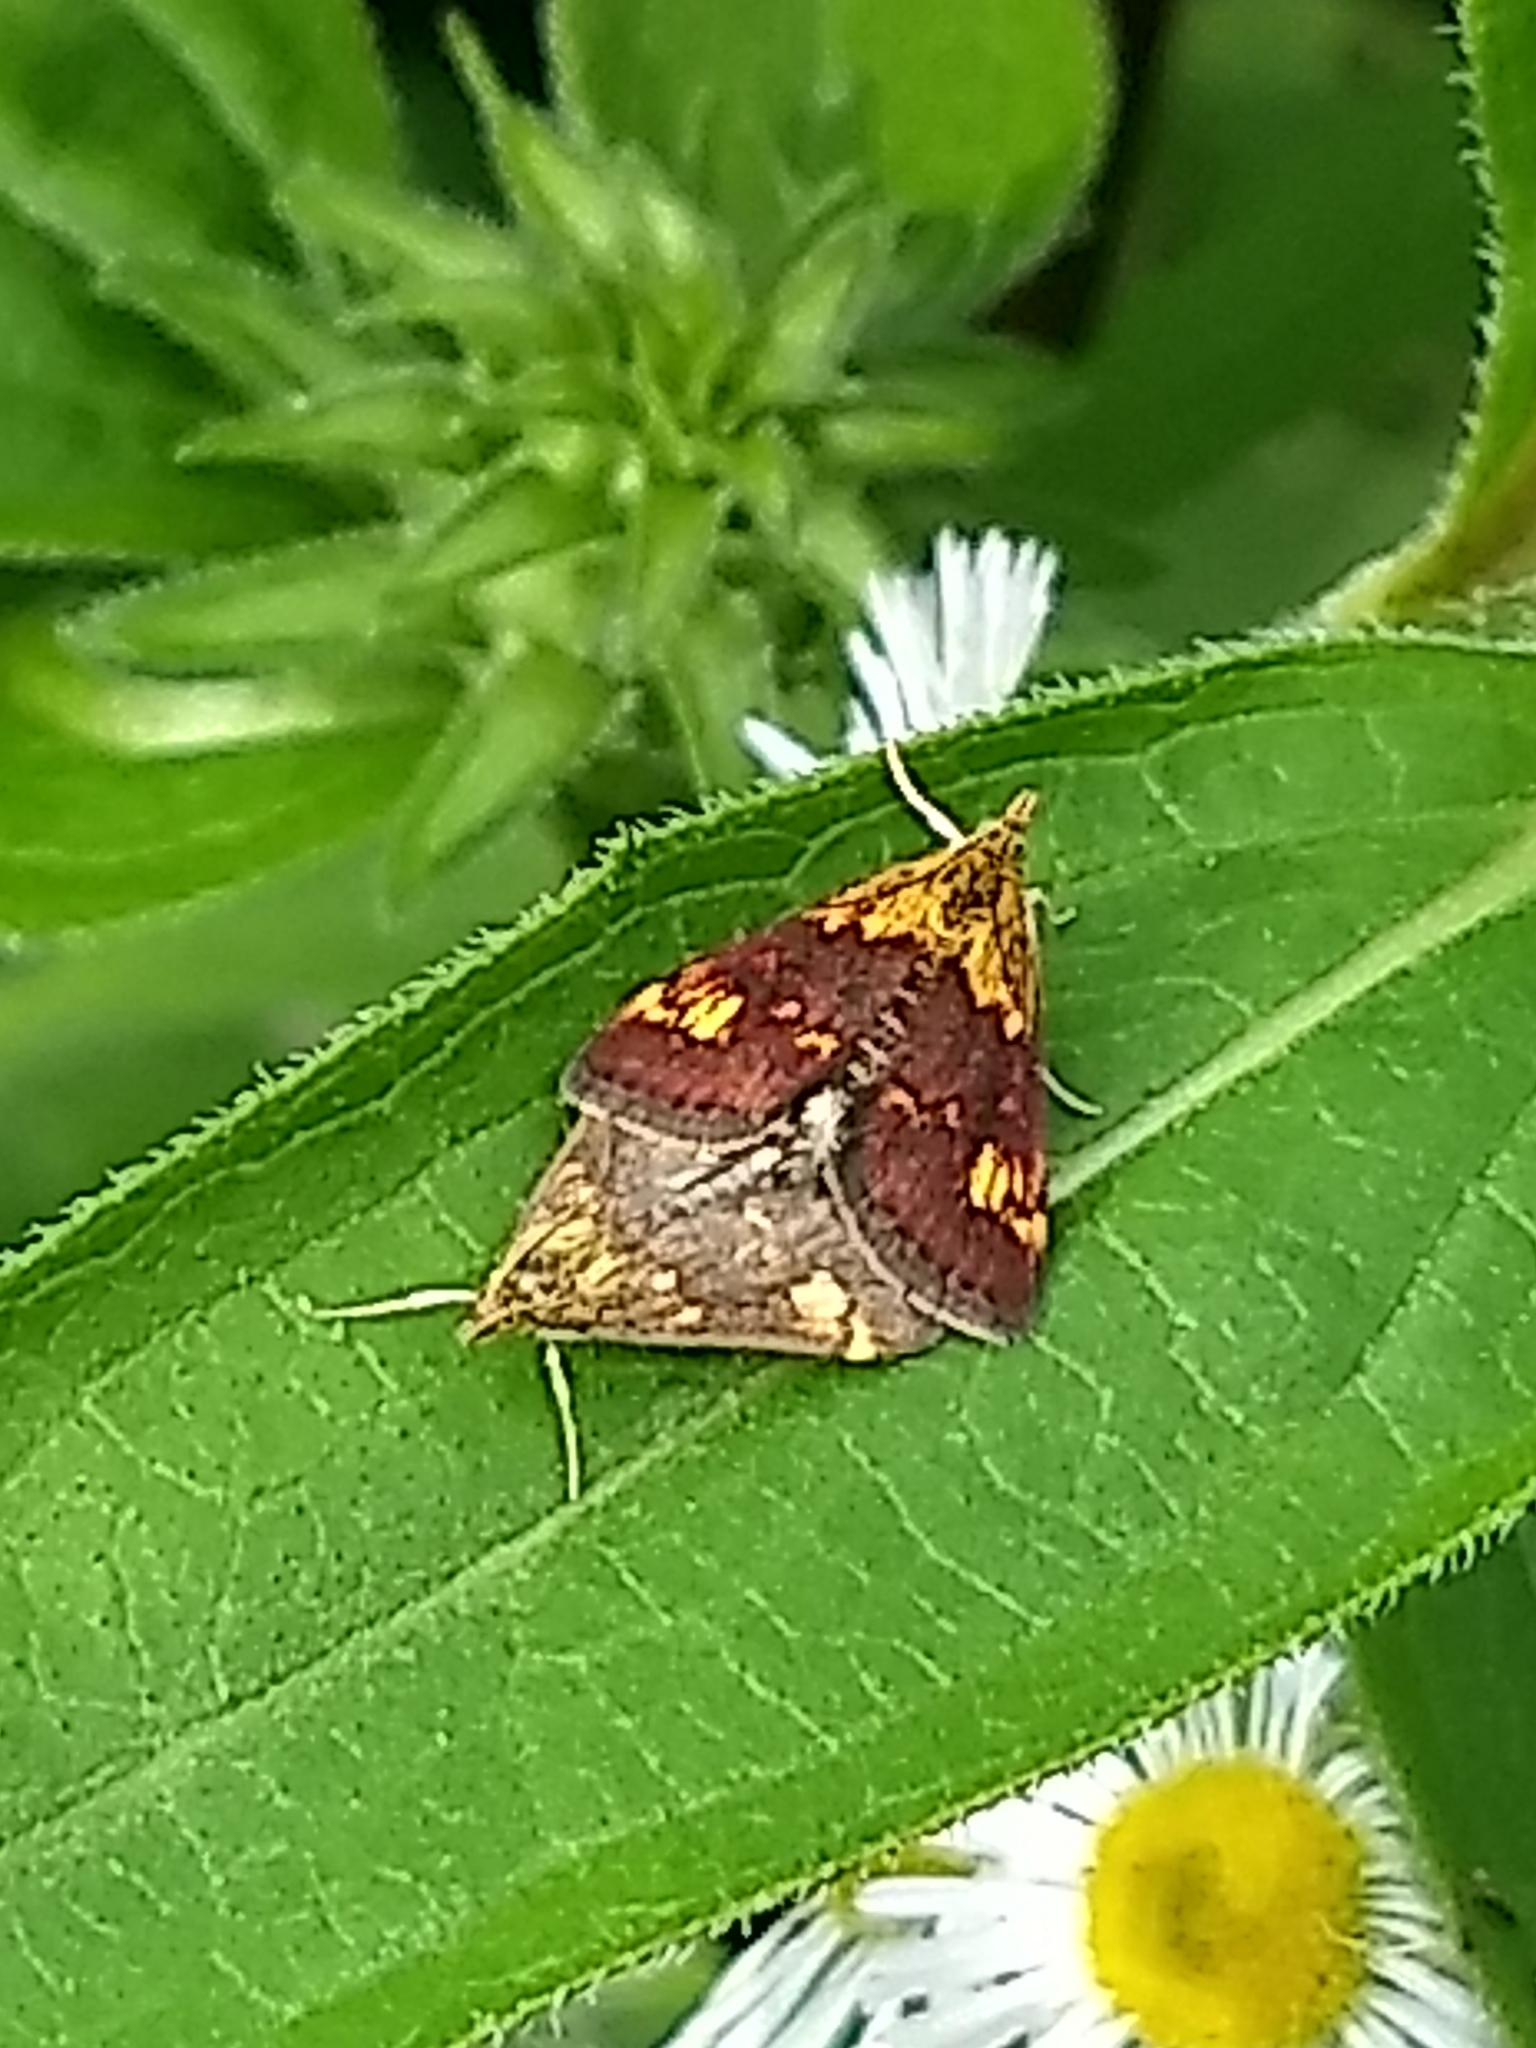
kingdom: Animalia
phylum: Arthropoda
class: Insecta
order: Lepidoptera
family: Crambidae
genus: Pyrausta
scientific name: Pyrausta orphisalis
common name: Orange mint moth
